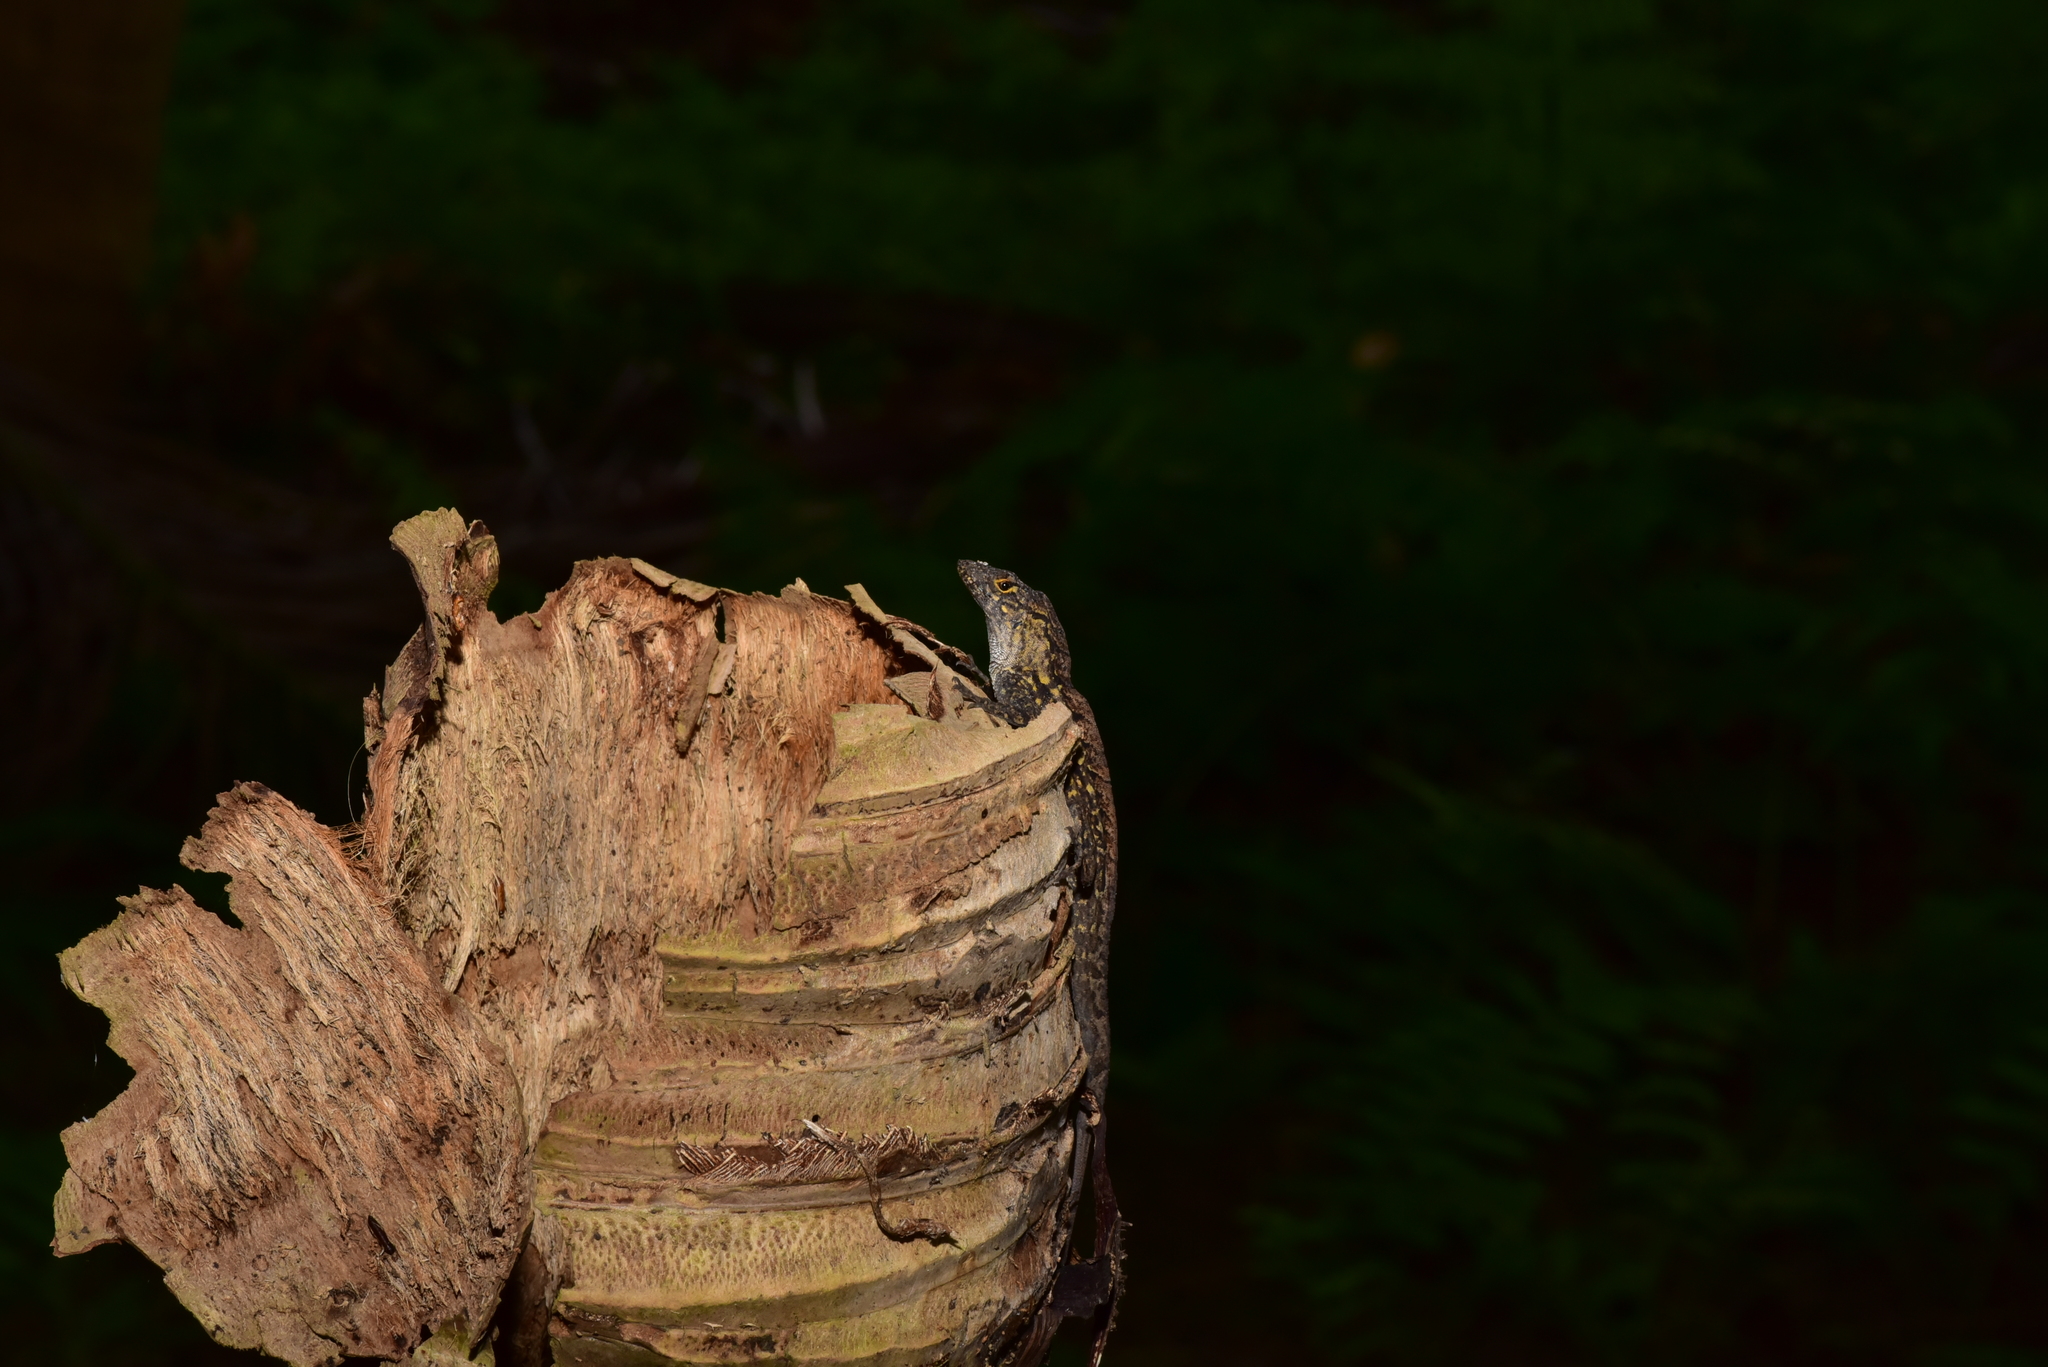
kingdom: Animalia
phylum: Chordata
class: Squamata
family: Dactyloidae
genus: Anolis
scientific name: Anolis sagrei
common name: Brown anole
